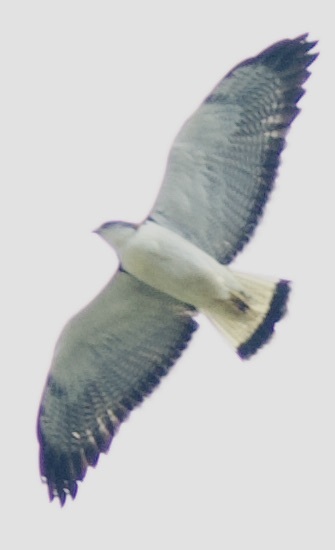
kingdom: Animalia
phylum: Chordata
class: Aves
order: Accipitriformes
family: Accipitridae
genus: Buteo
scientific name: Buteo polyosoma
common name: Variable hawk
